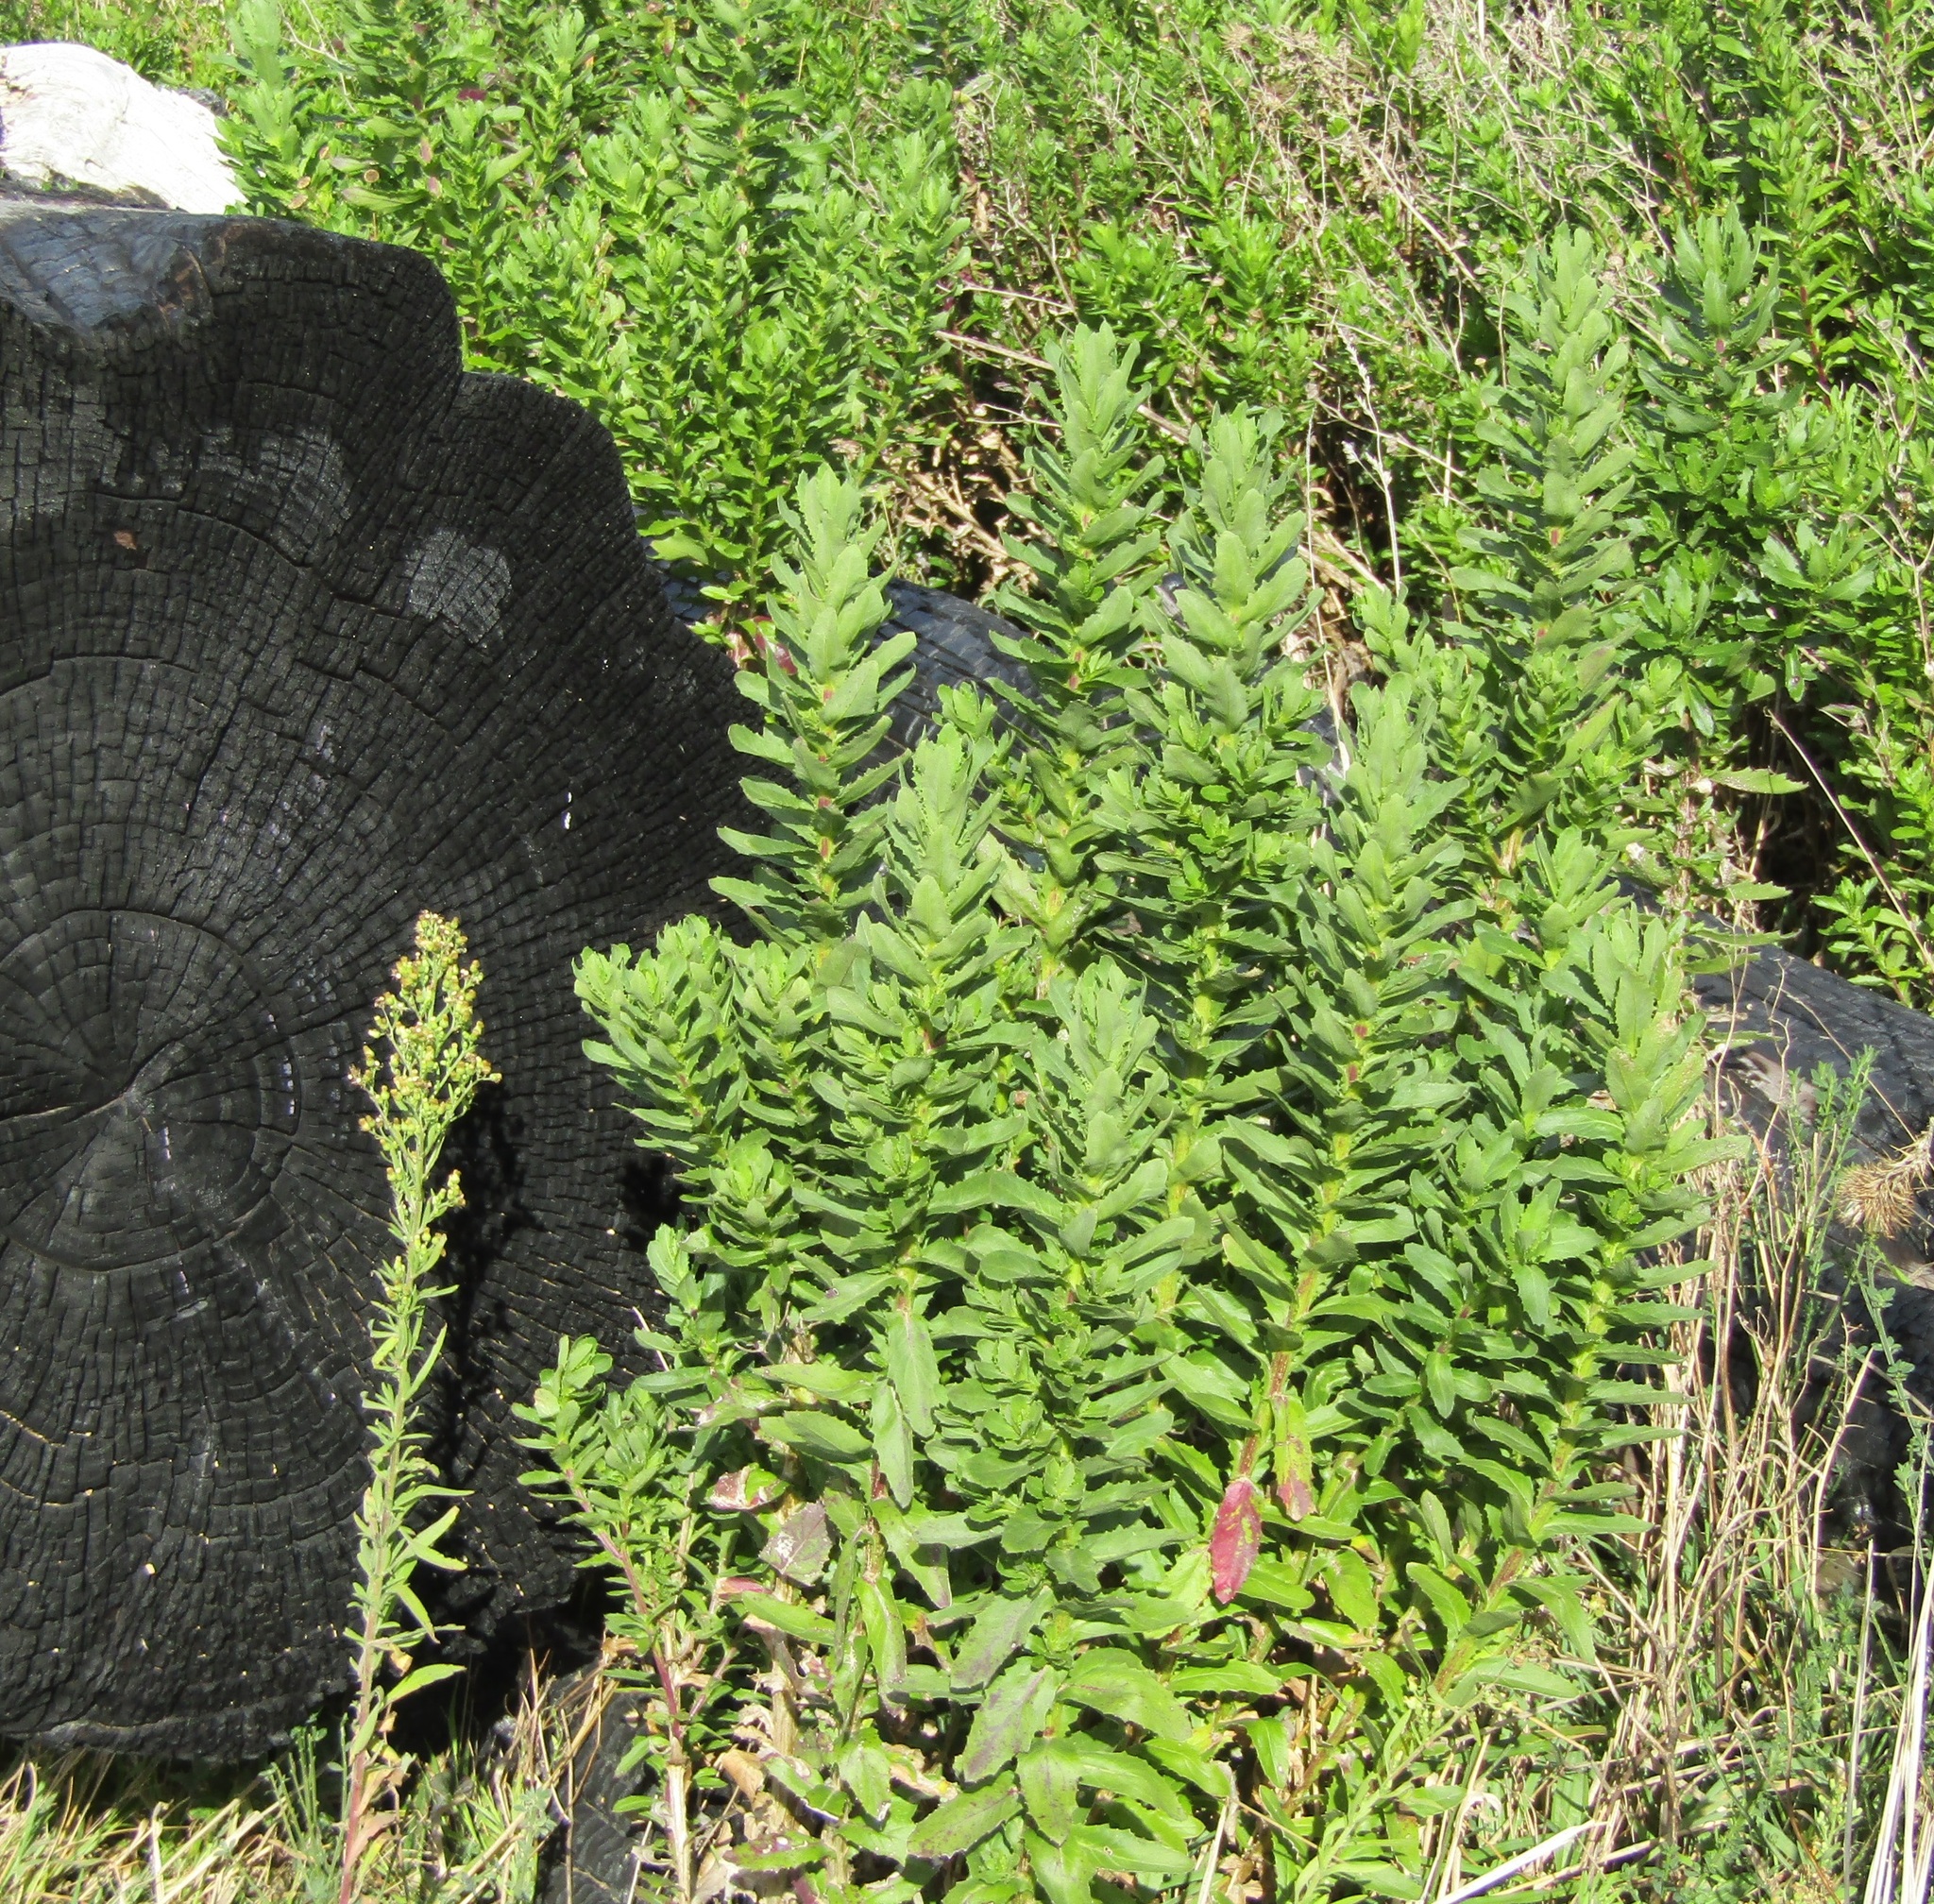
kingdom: Plantae
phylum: Tracheophyta
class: Magnoliopsida
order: Asterales
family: Asteraceae
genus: Osteospermum
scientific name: Osteospermum moniliferum
